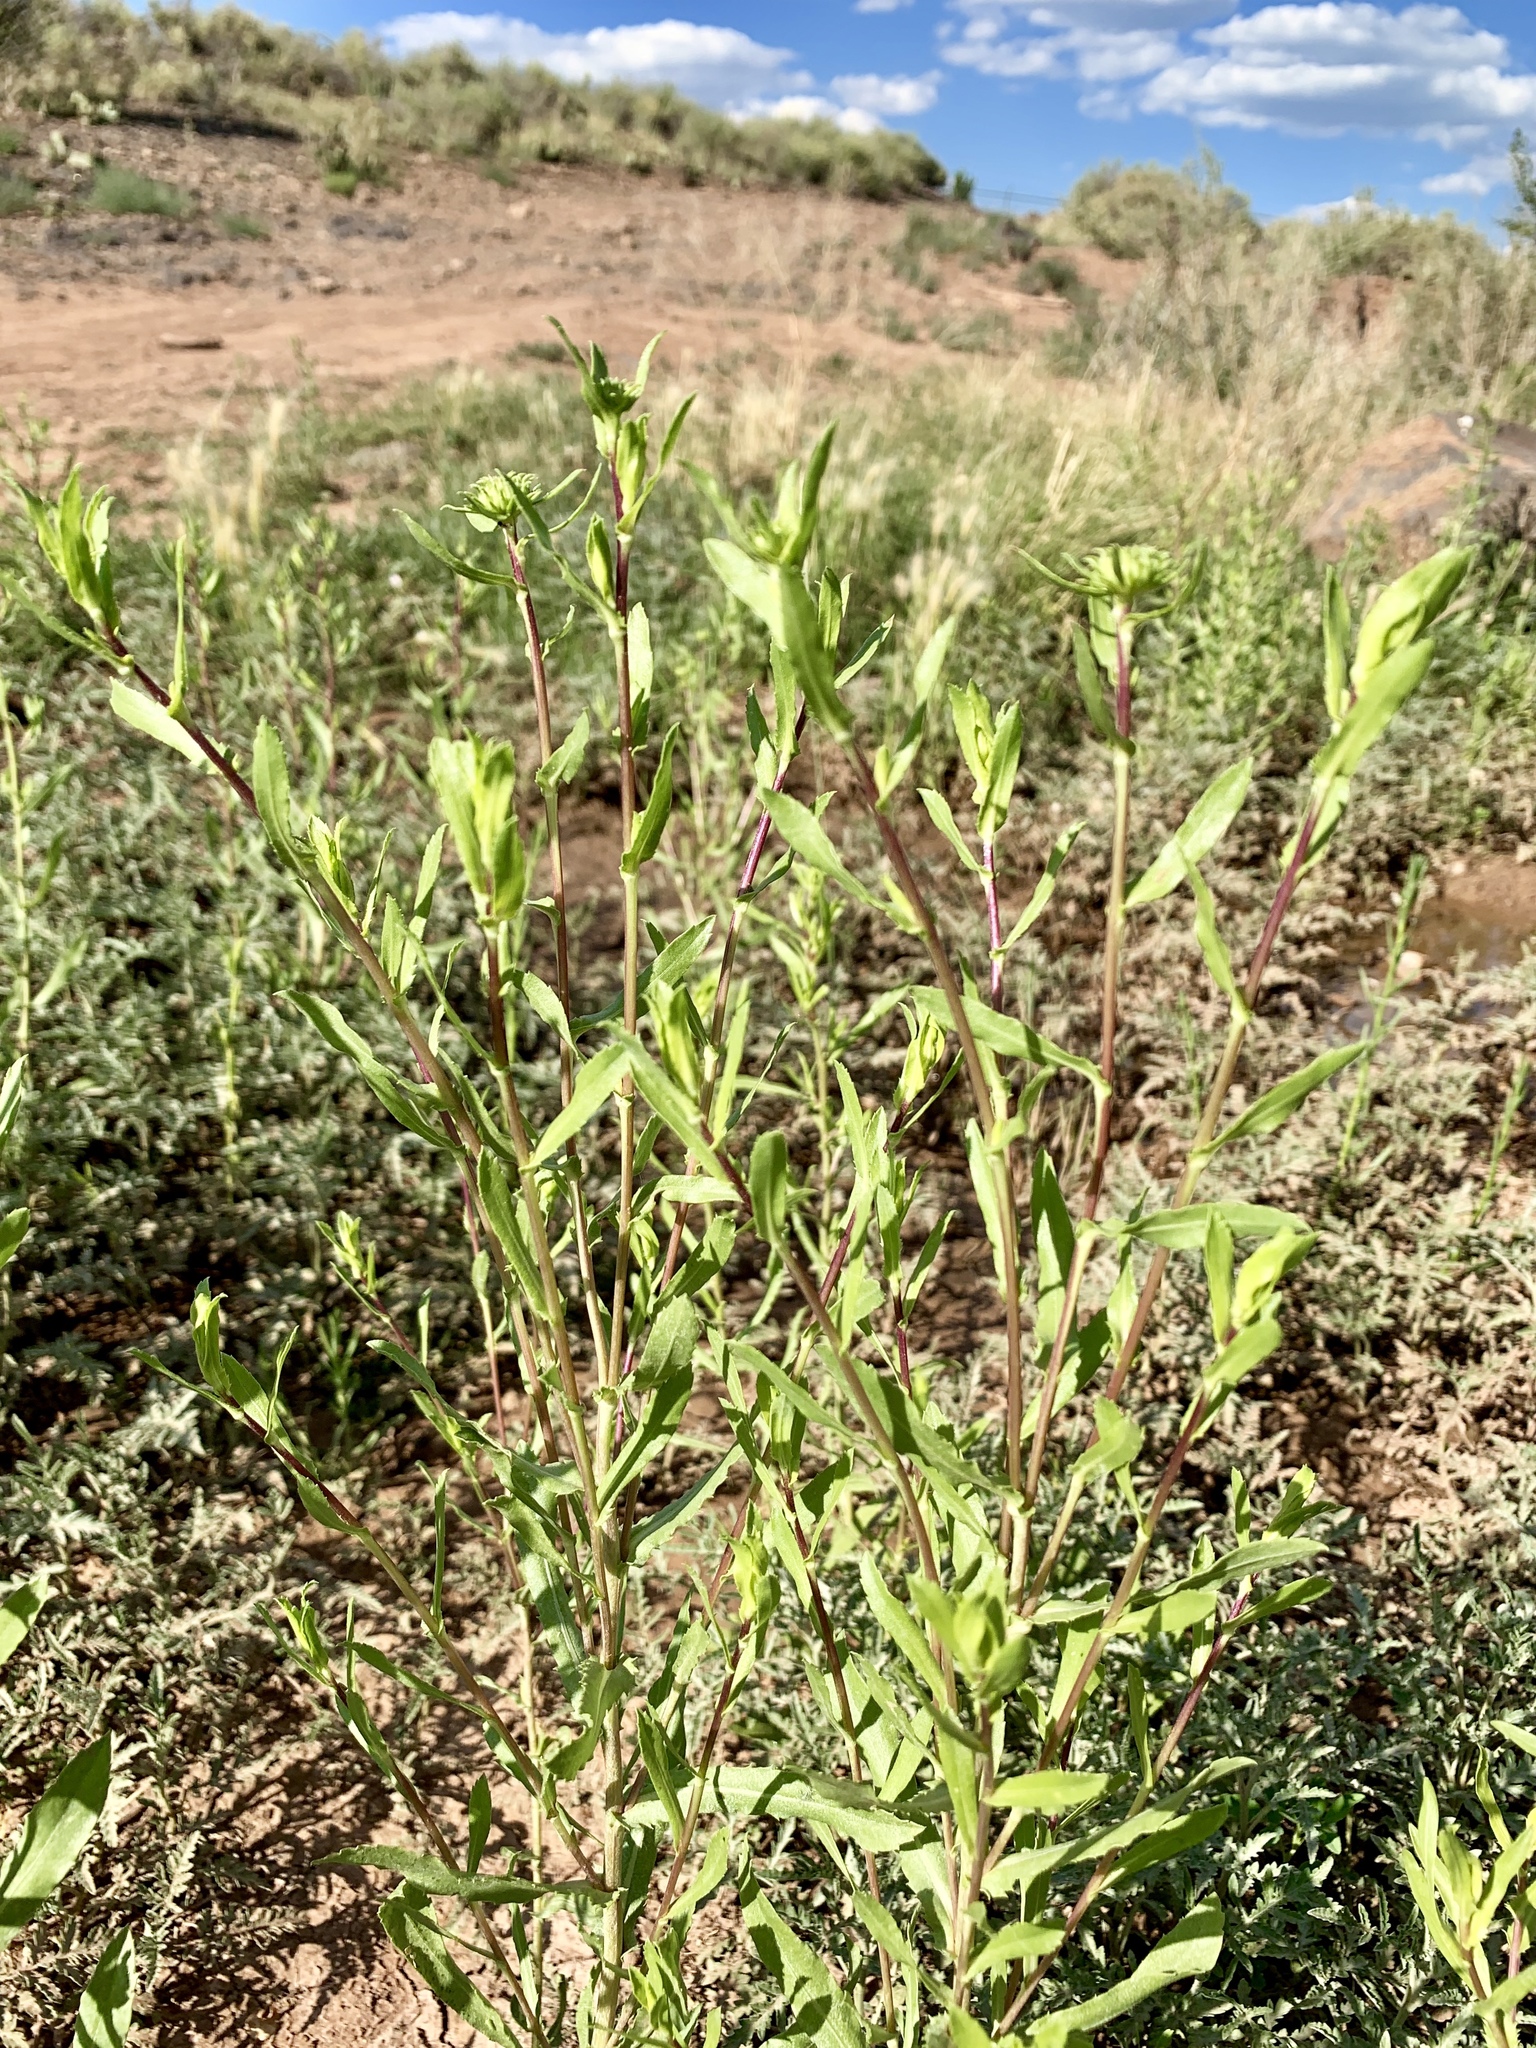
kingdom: Plantae
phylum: Tracheophyta
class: Magnoliopsida
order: Myrtales
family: Onagraceae
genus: Oenothera
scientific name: Oenothera curtiflora
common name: Velvetweed
